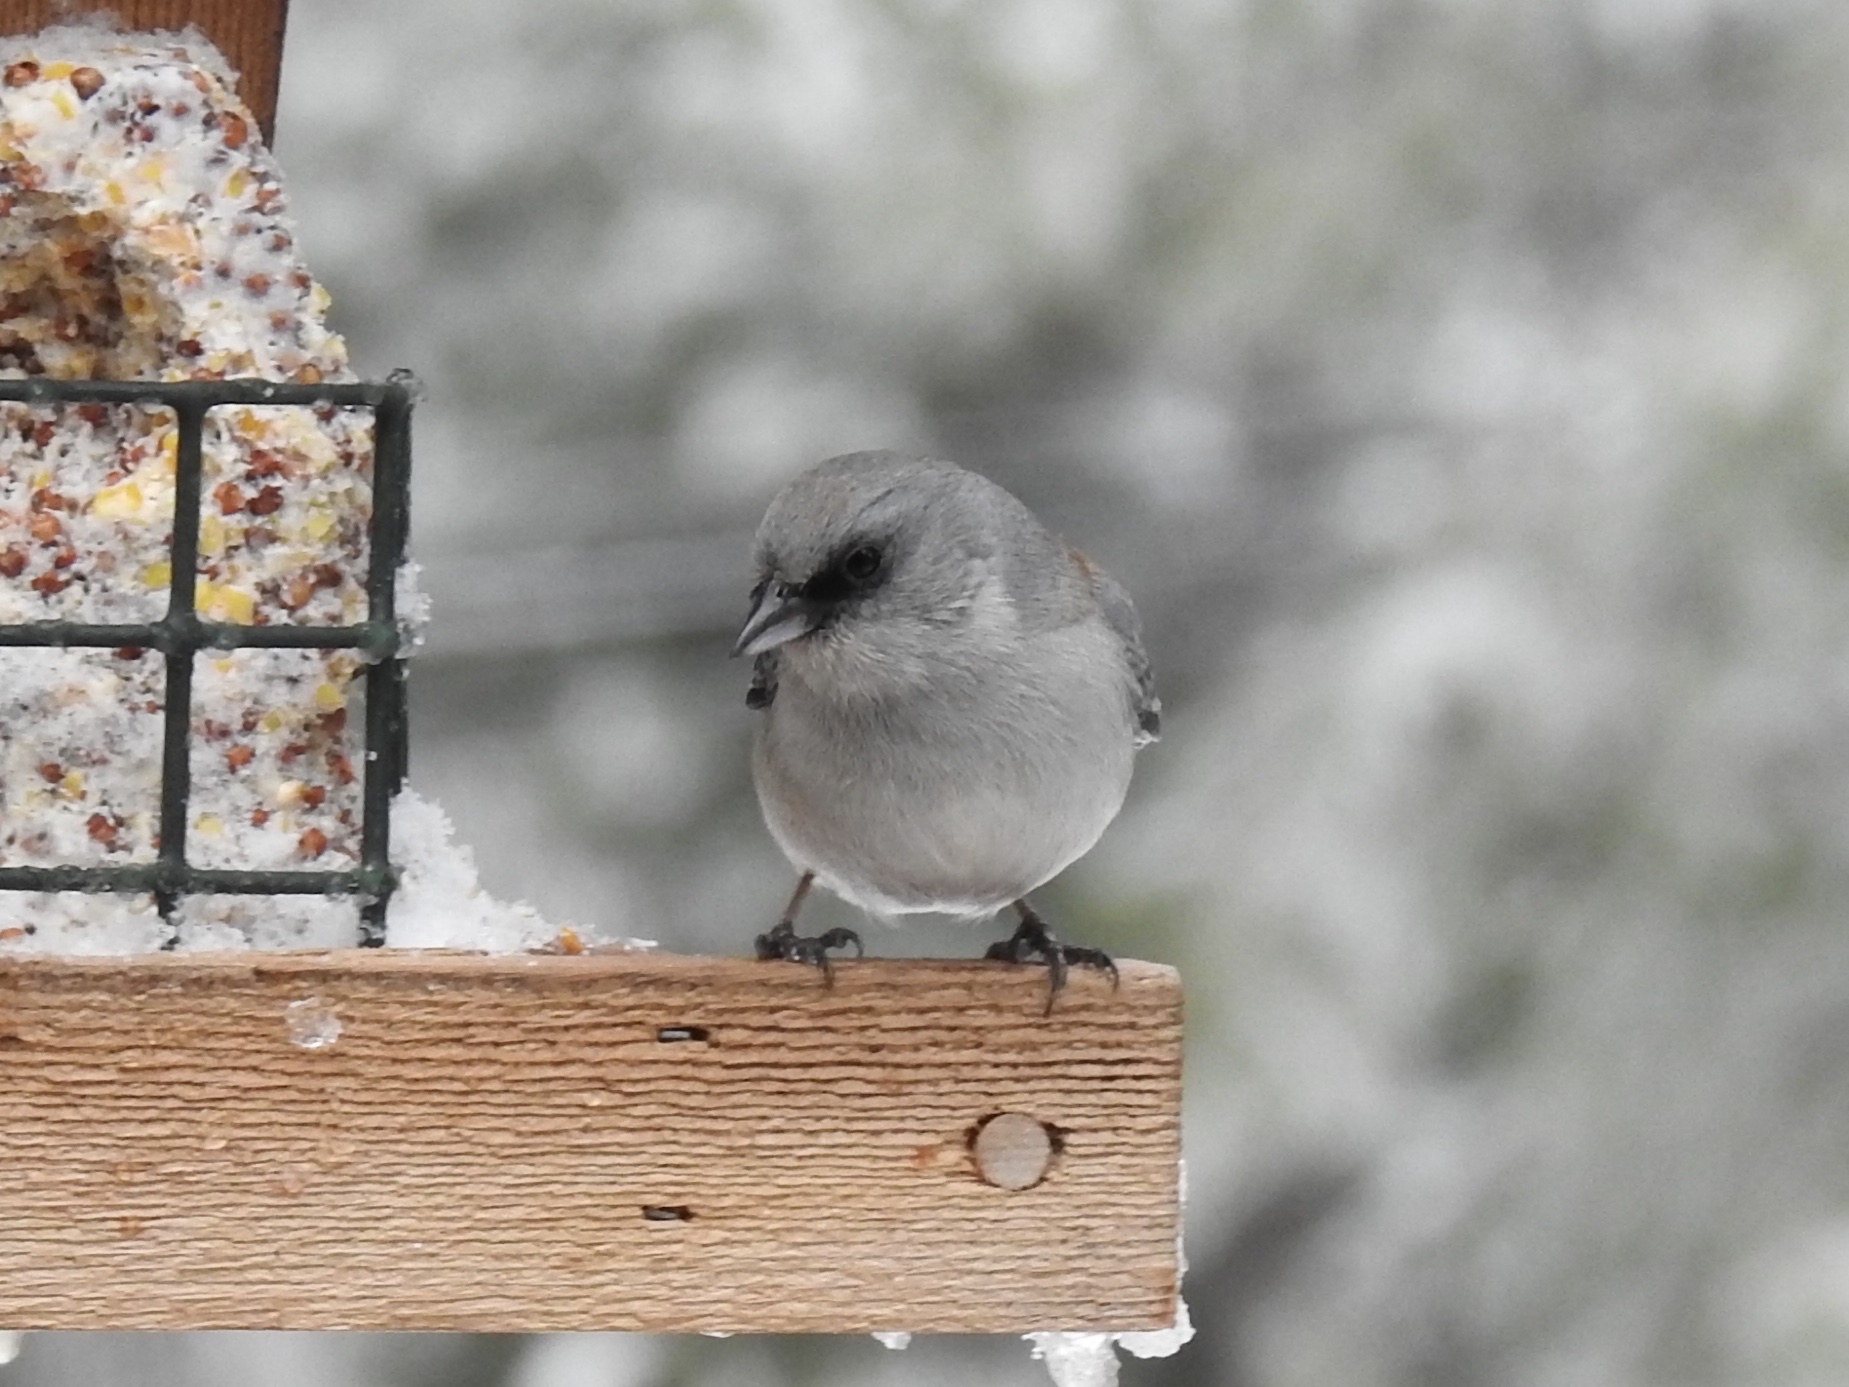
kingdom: Animalia
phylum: Chordata
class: Aves
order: Passeriformes
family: Passerellidae
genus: Junco
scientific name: Junco hyemalis
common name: Dark-eyed junco
